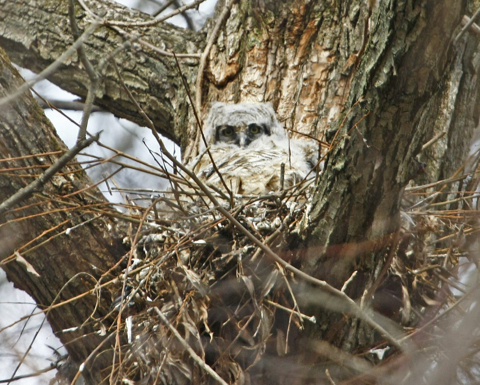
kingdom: Animalia
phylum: Chordata
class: Aves
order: Strigiformes
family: Strigidae
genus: Bubo
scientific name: Bubo virginianus
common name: Great horned owl
